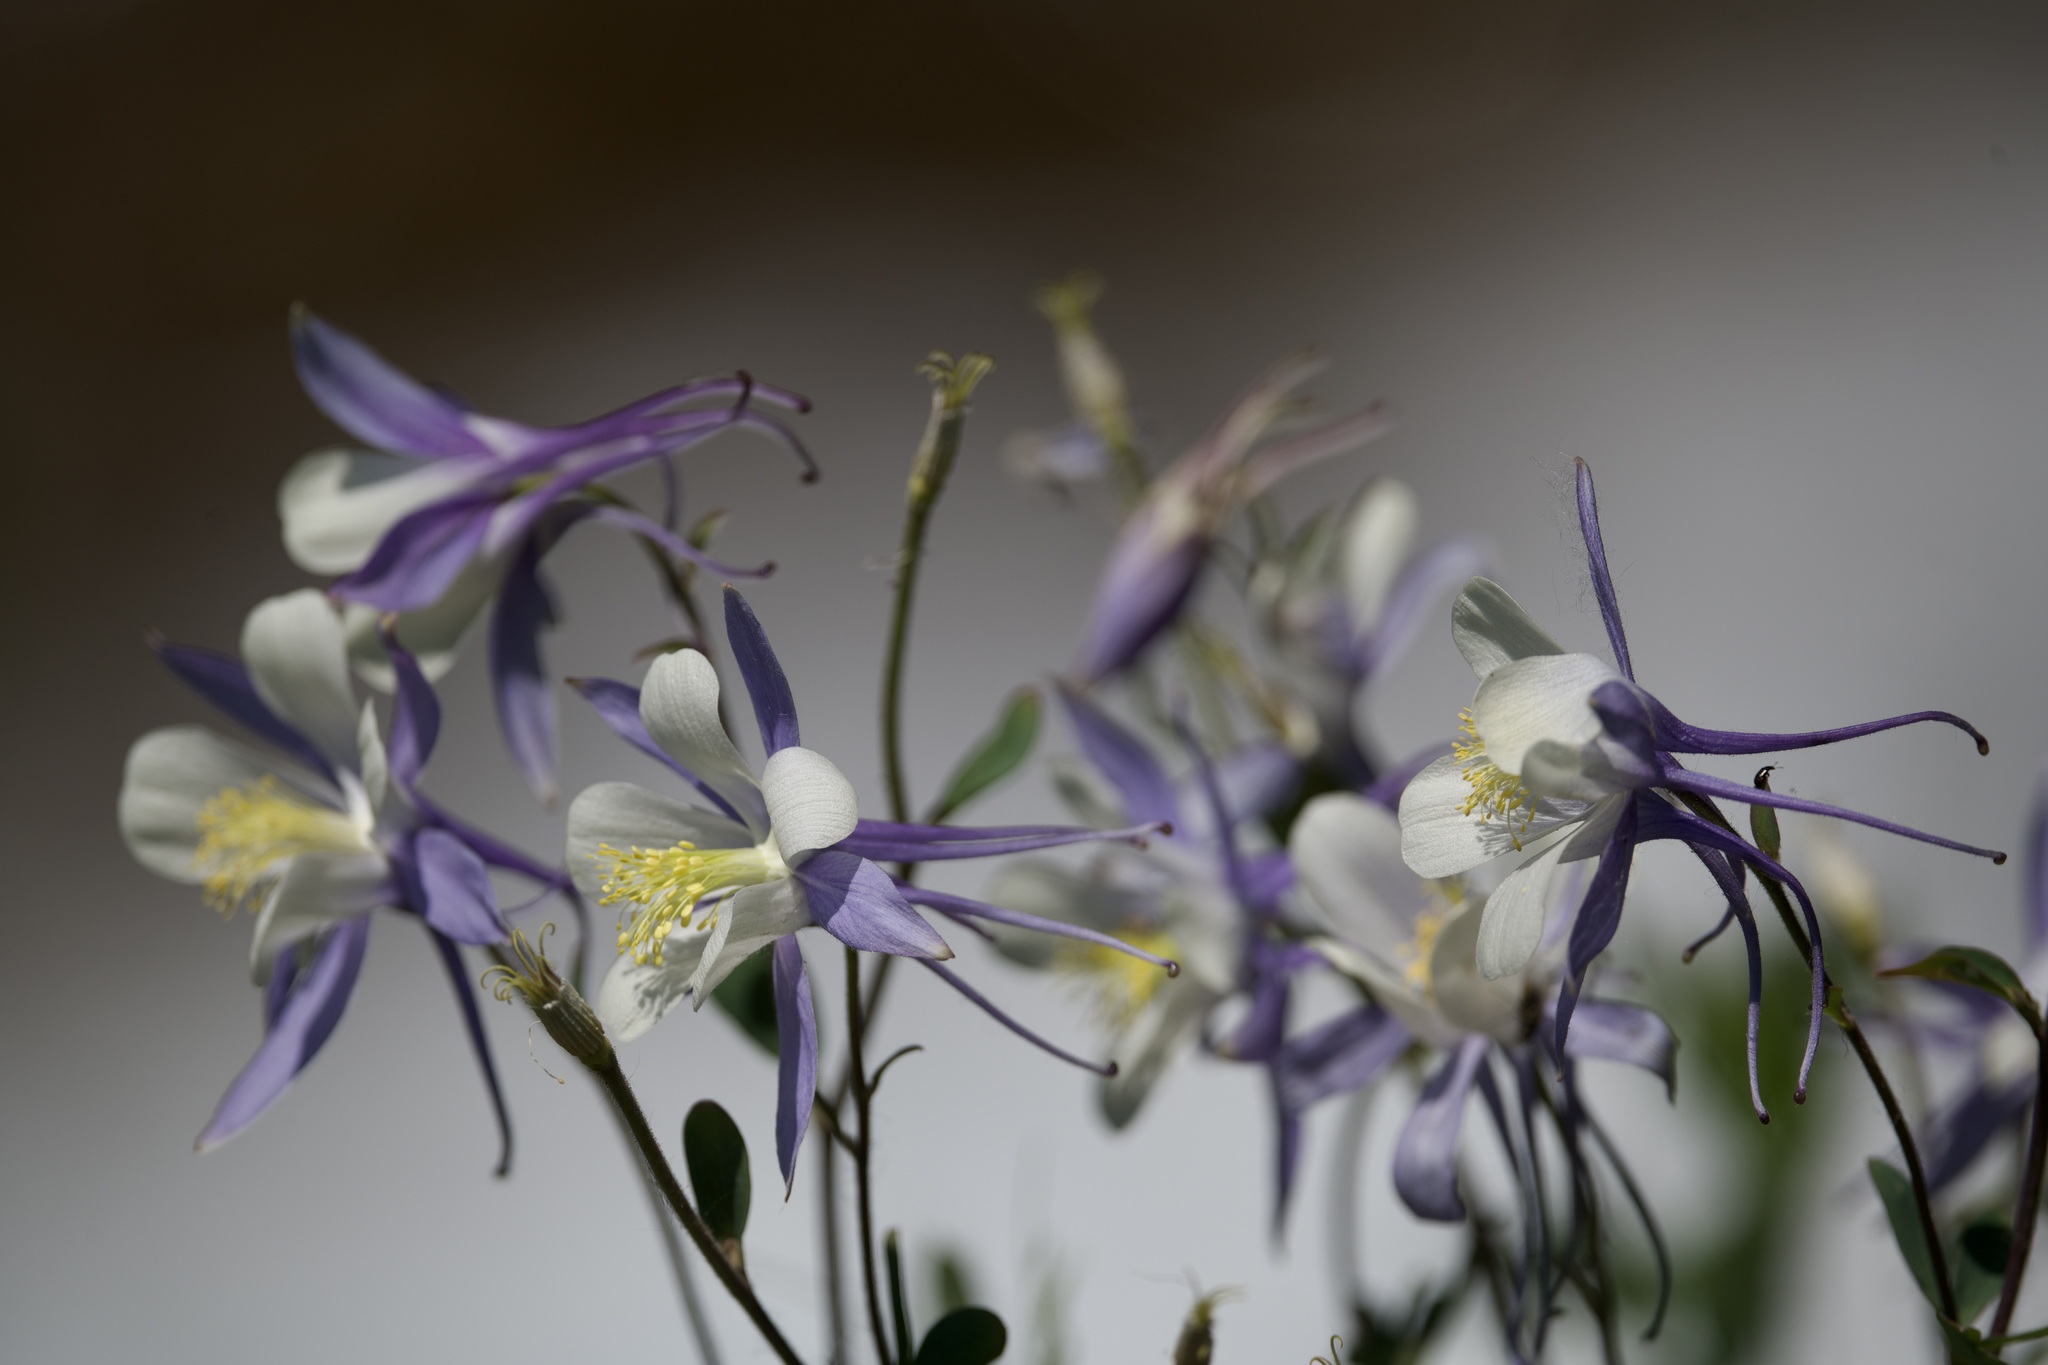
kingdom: Plantae
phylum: Tracheophyta
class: Magnoliopsida
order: Ranunculales
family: Ranunculaceae
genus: Aquilegia
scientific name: Aquilegia coerulea
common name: Rocky mountain columbine
